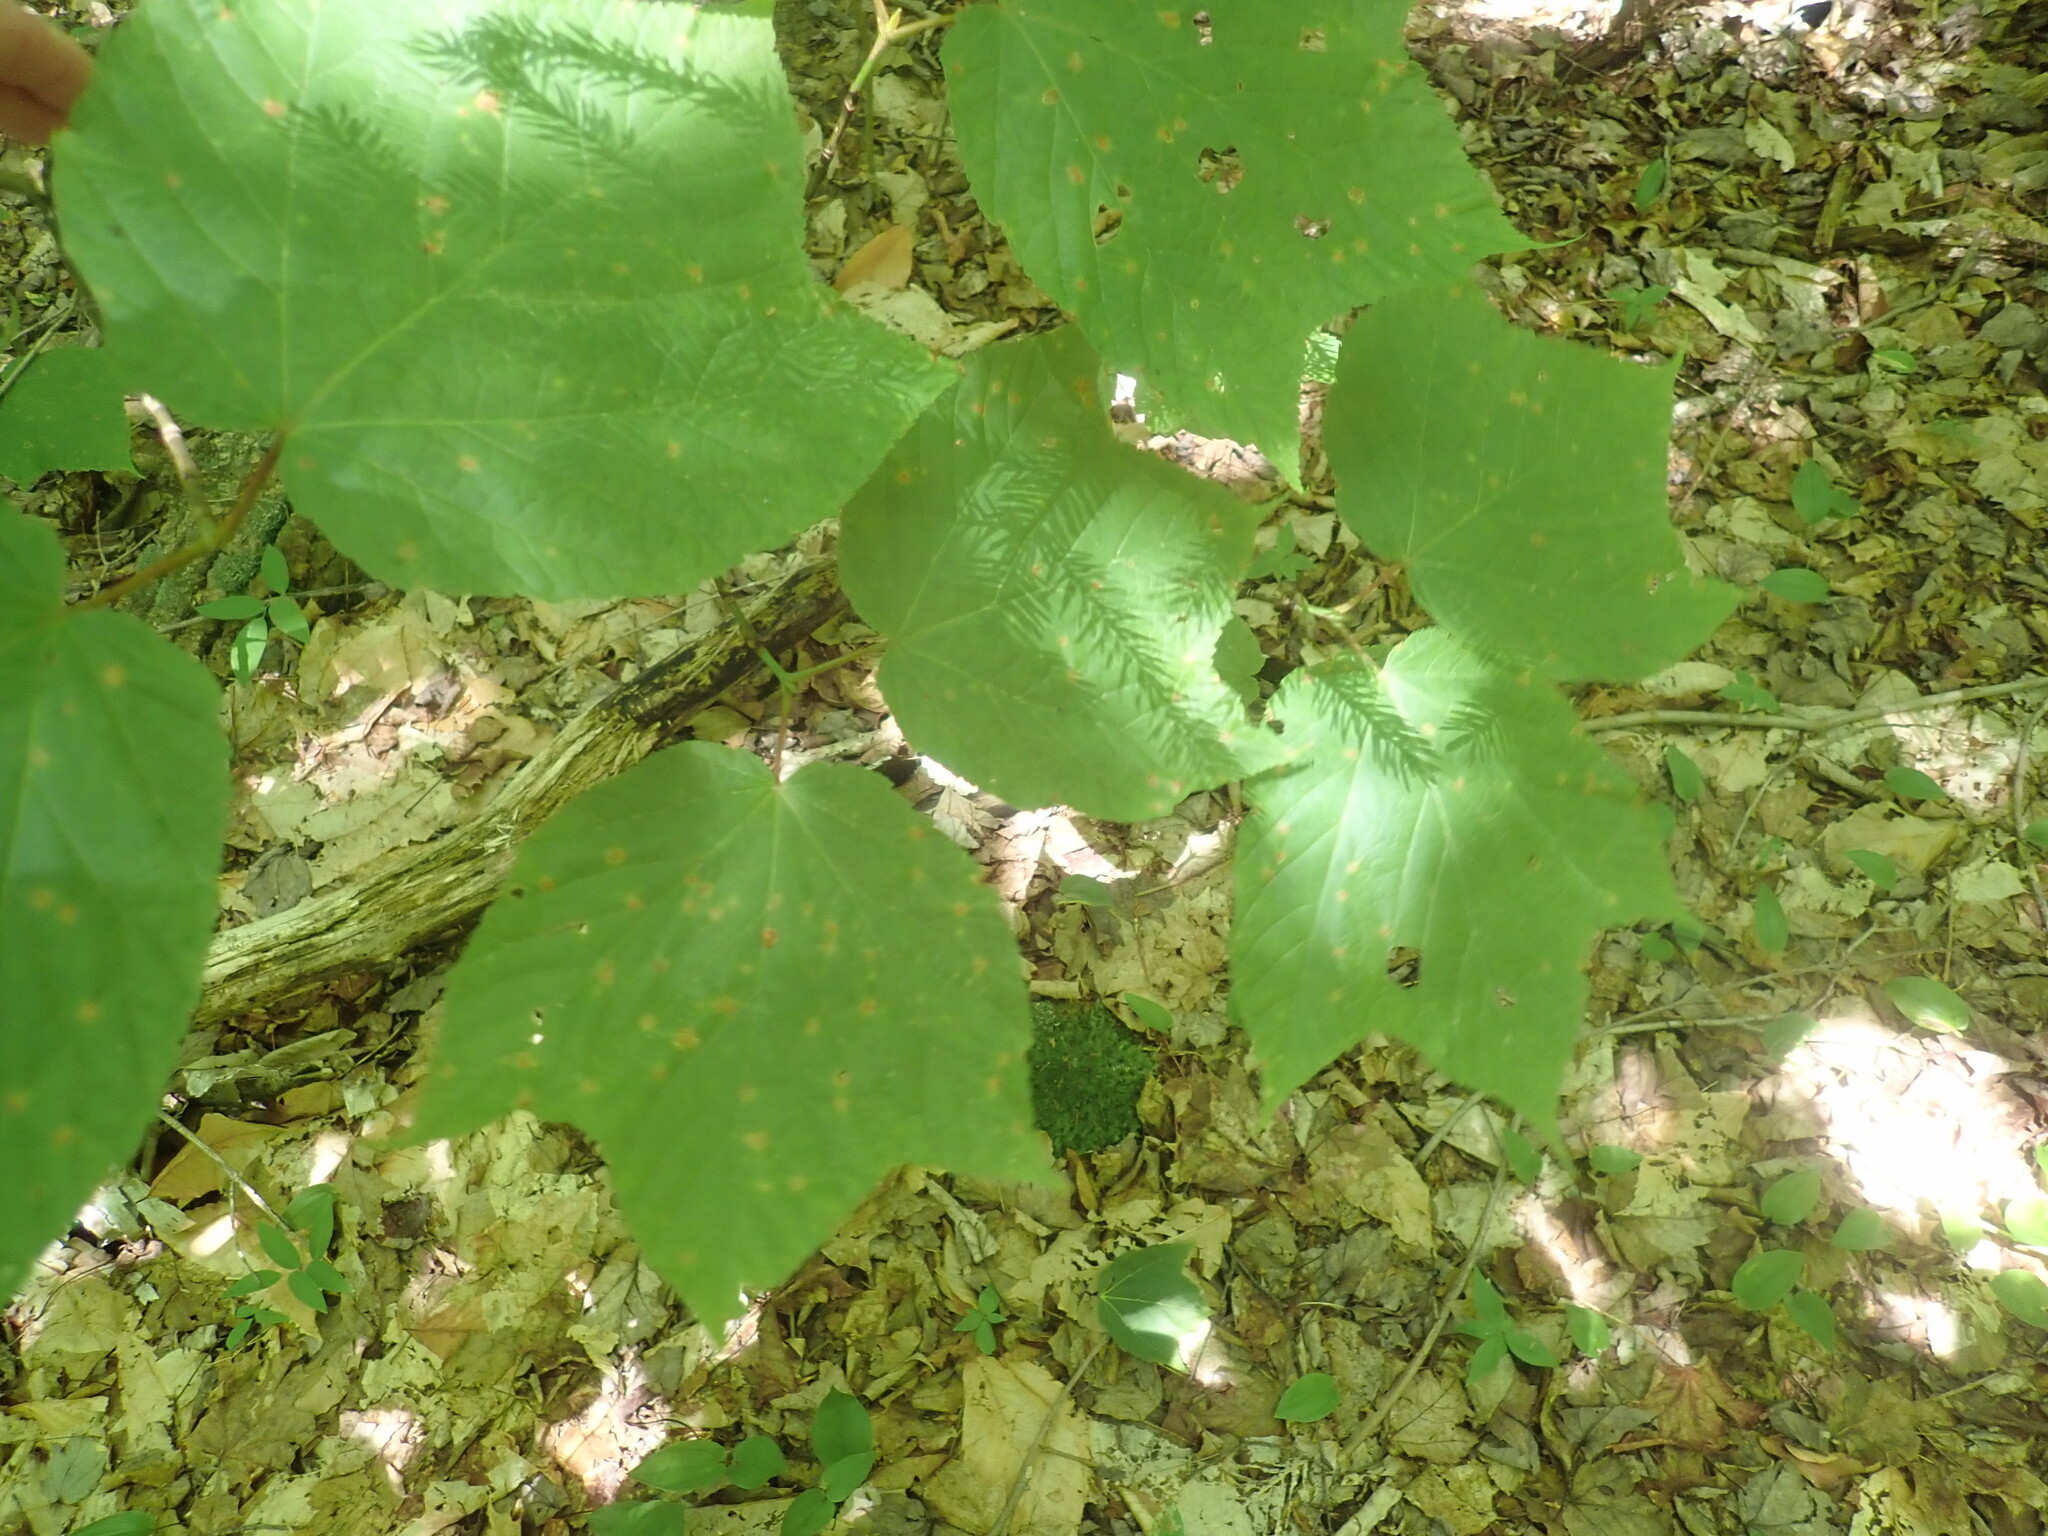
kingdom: Plantae
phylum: Tracheophyta
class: Magnoliopsida
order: Sapindales
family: Sapindaceae
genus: Acer
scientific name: Acer pensylvanicum
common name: Moosewood
